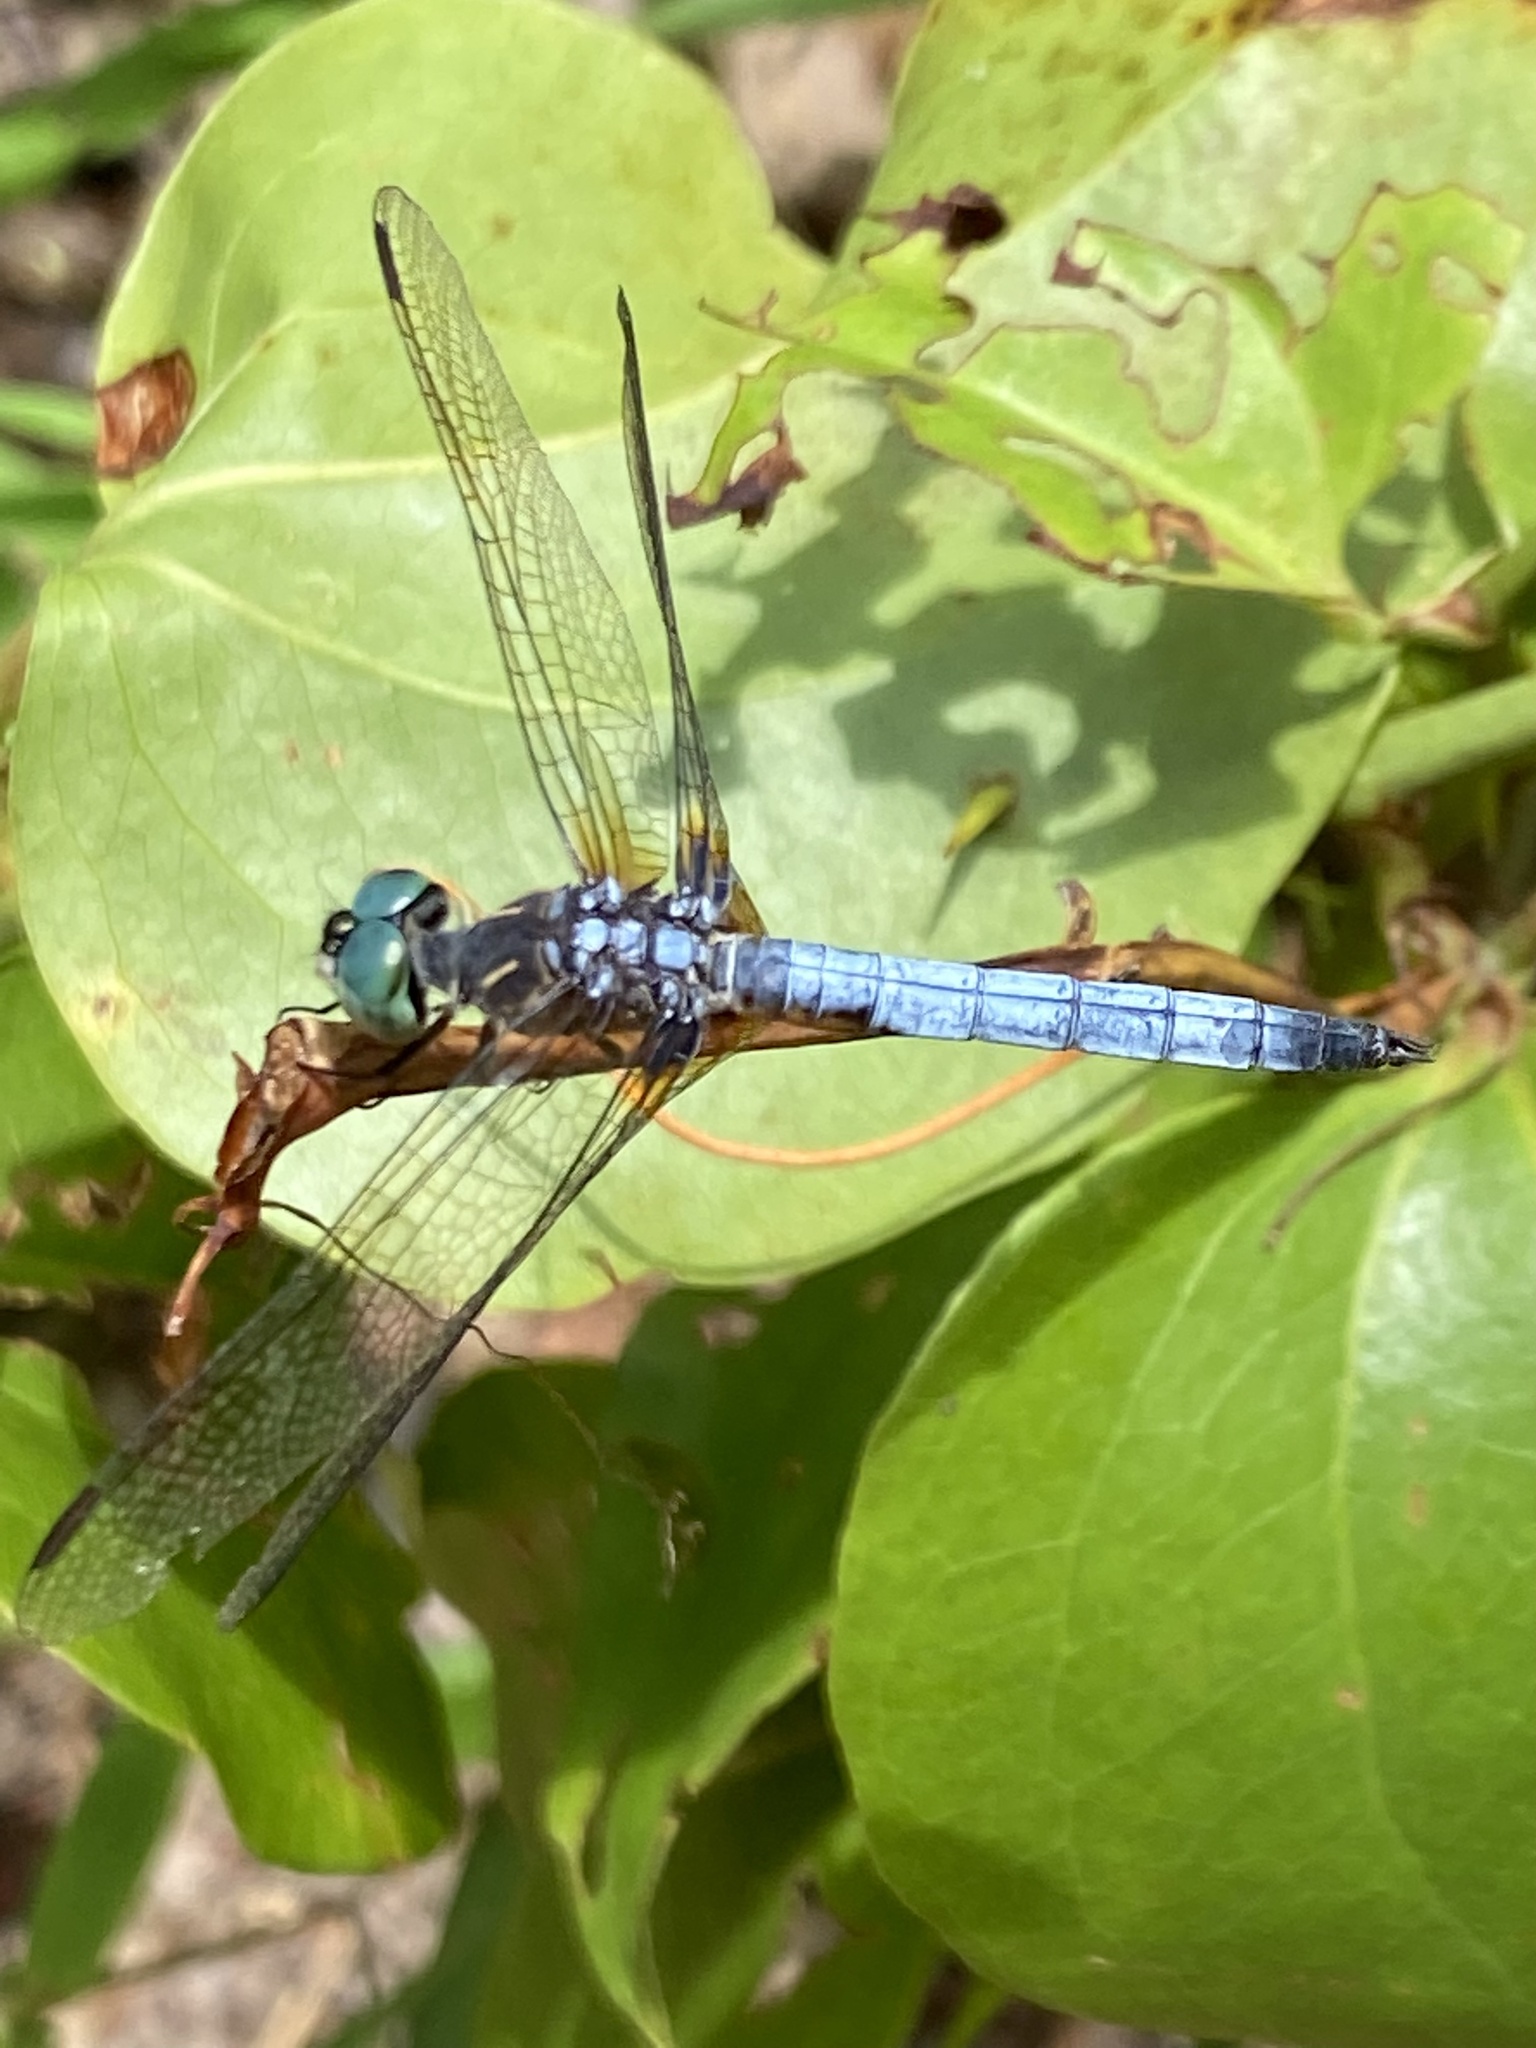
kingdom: Animalia
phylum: Arthropoda
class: Insecta
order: Odonata
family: Libellulidae
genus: Pachydiplax
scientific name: Pachydiplax longipennis
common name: Blue dasher
